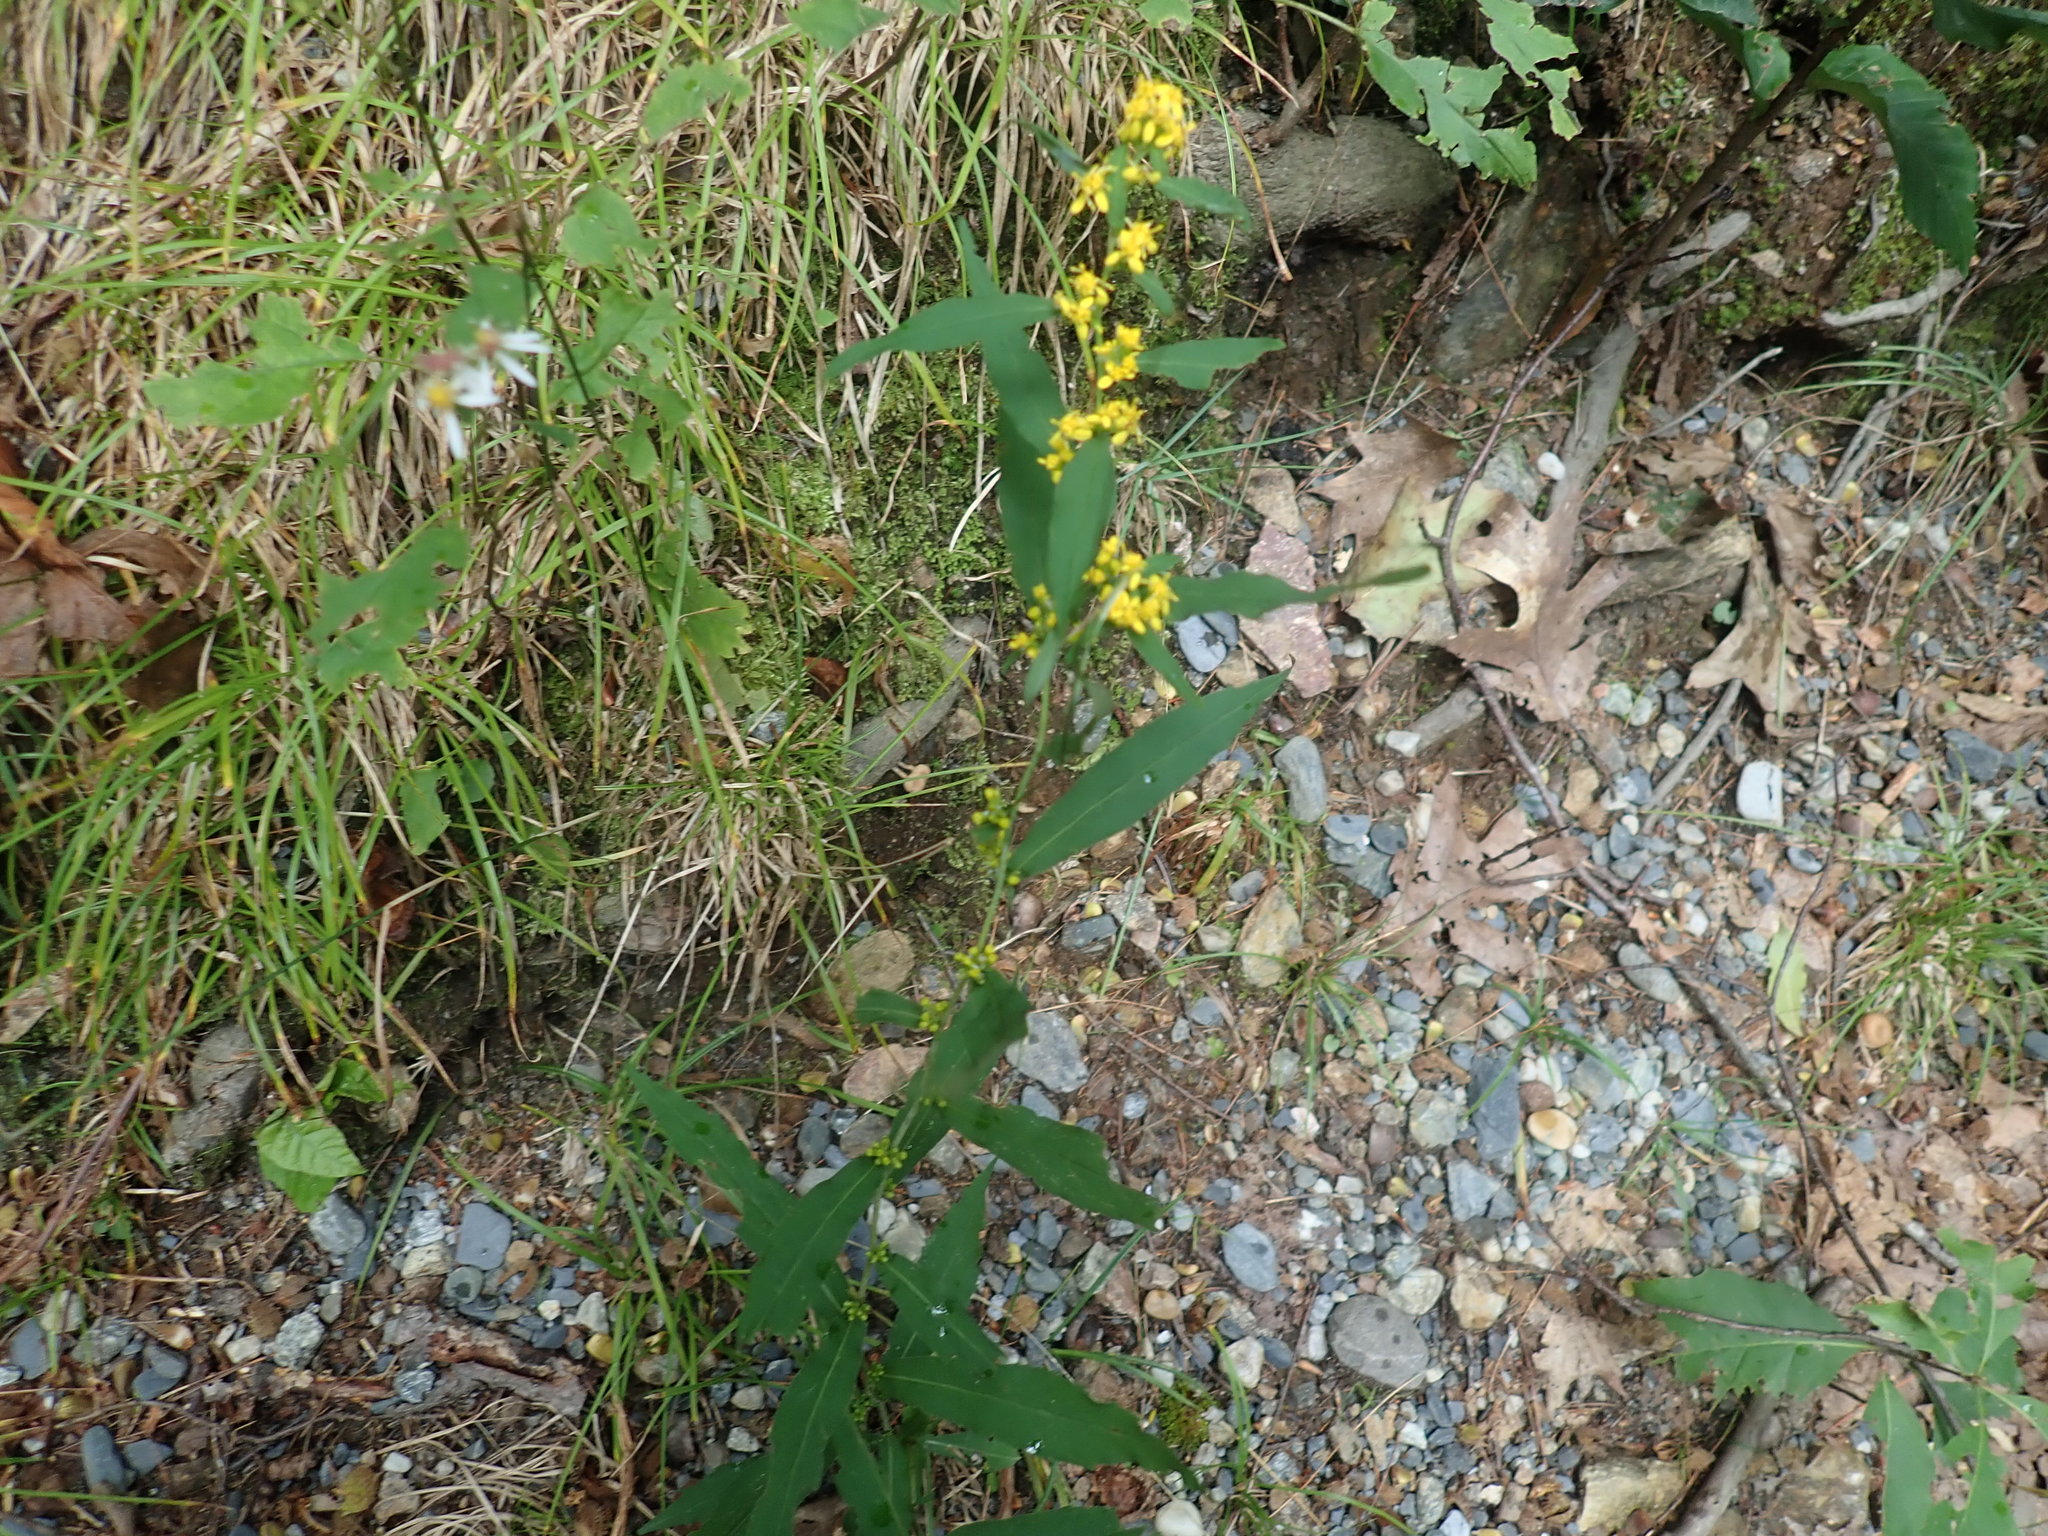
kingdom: Plantae
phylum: Tracheophyta
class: Magnoliopsida
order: Asterales
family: Asteraceae
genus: Solidago
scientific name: Solidago caesia
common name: Woodland goldenrod
